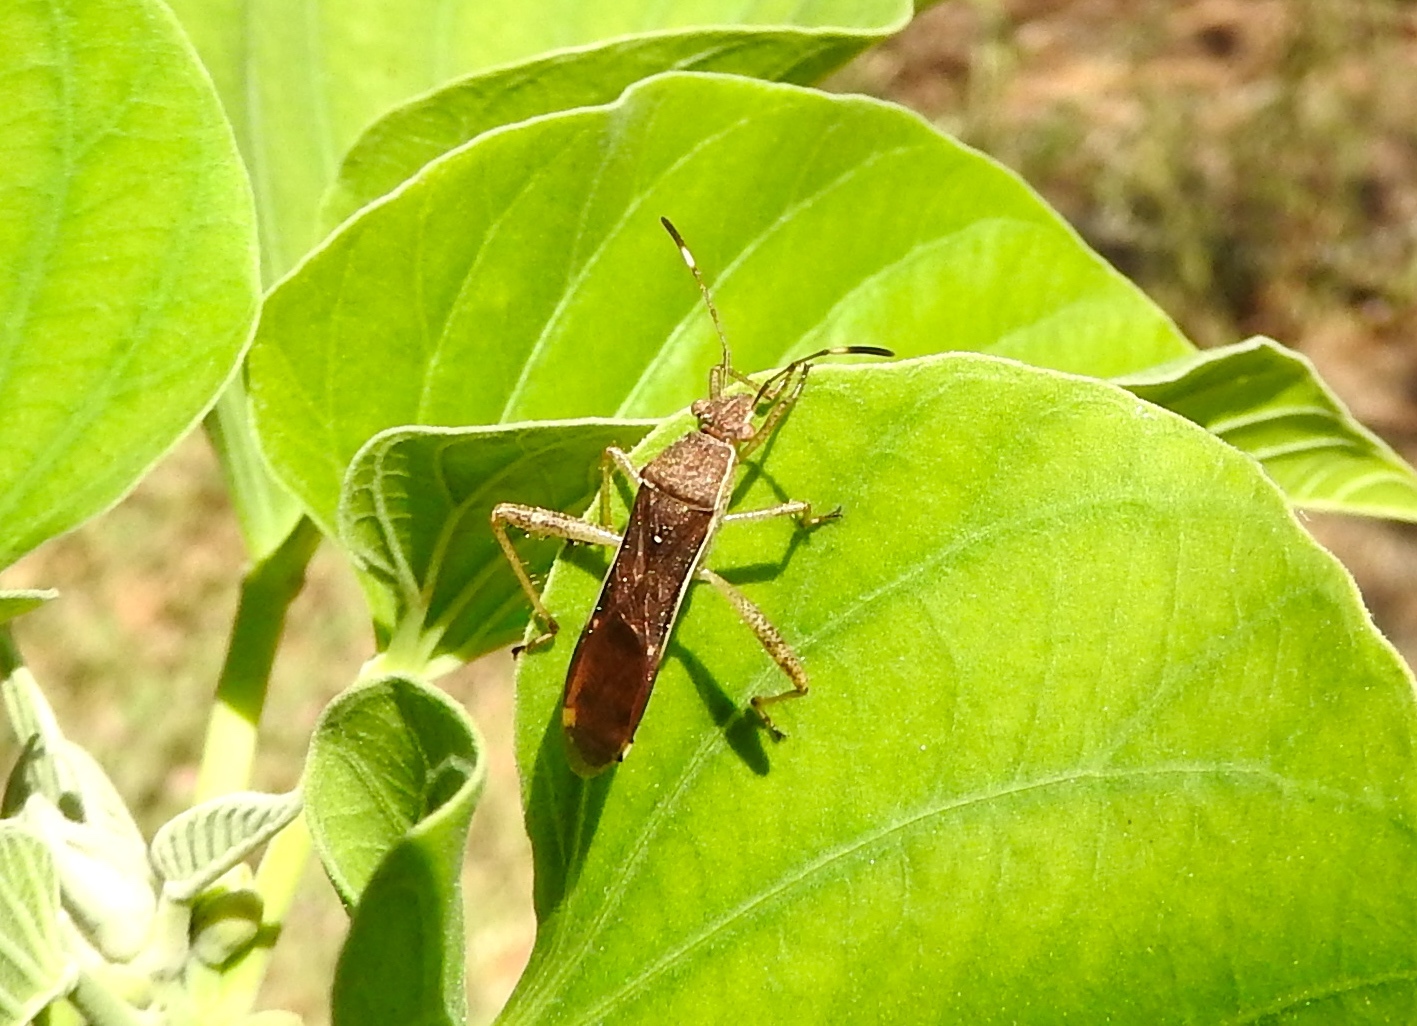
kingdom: Animalia
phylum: Arthropoda
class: Insecta
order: Hemiptera
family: Alydidae
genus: Burtinus
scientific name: Burtinus notatipennis
